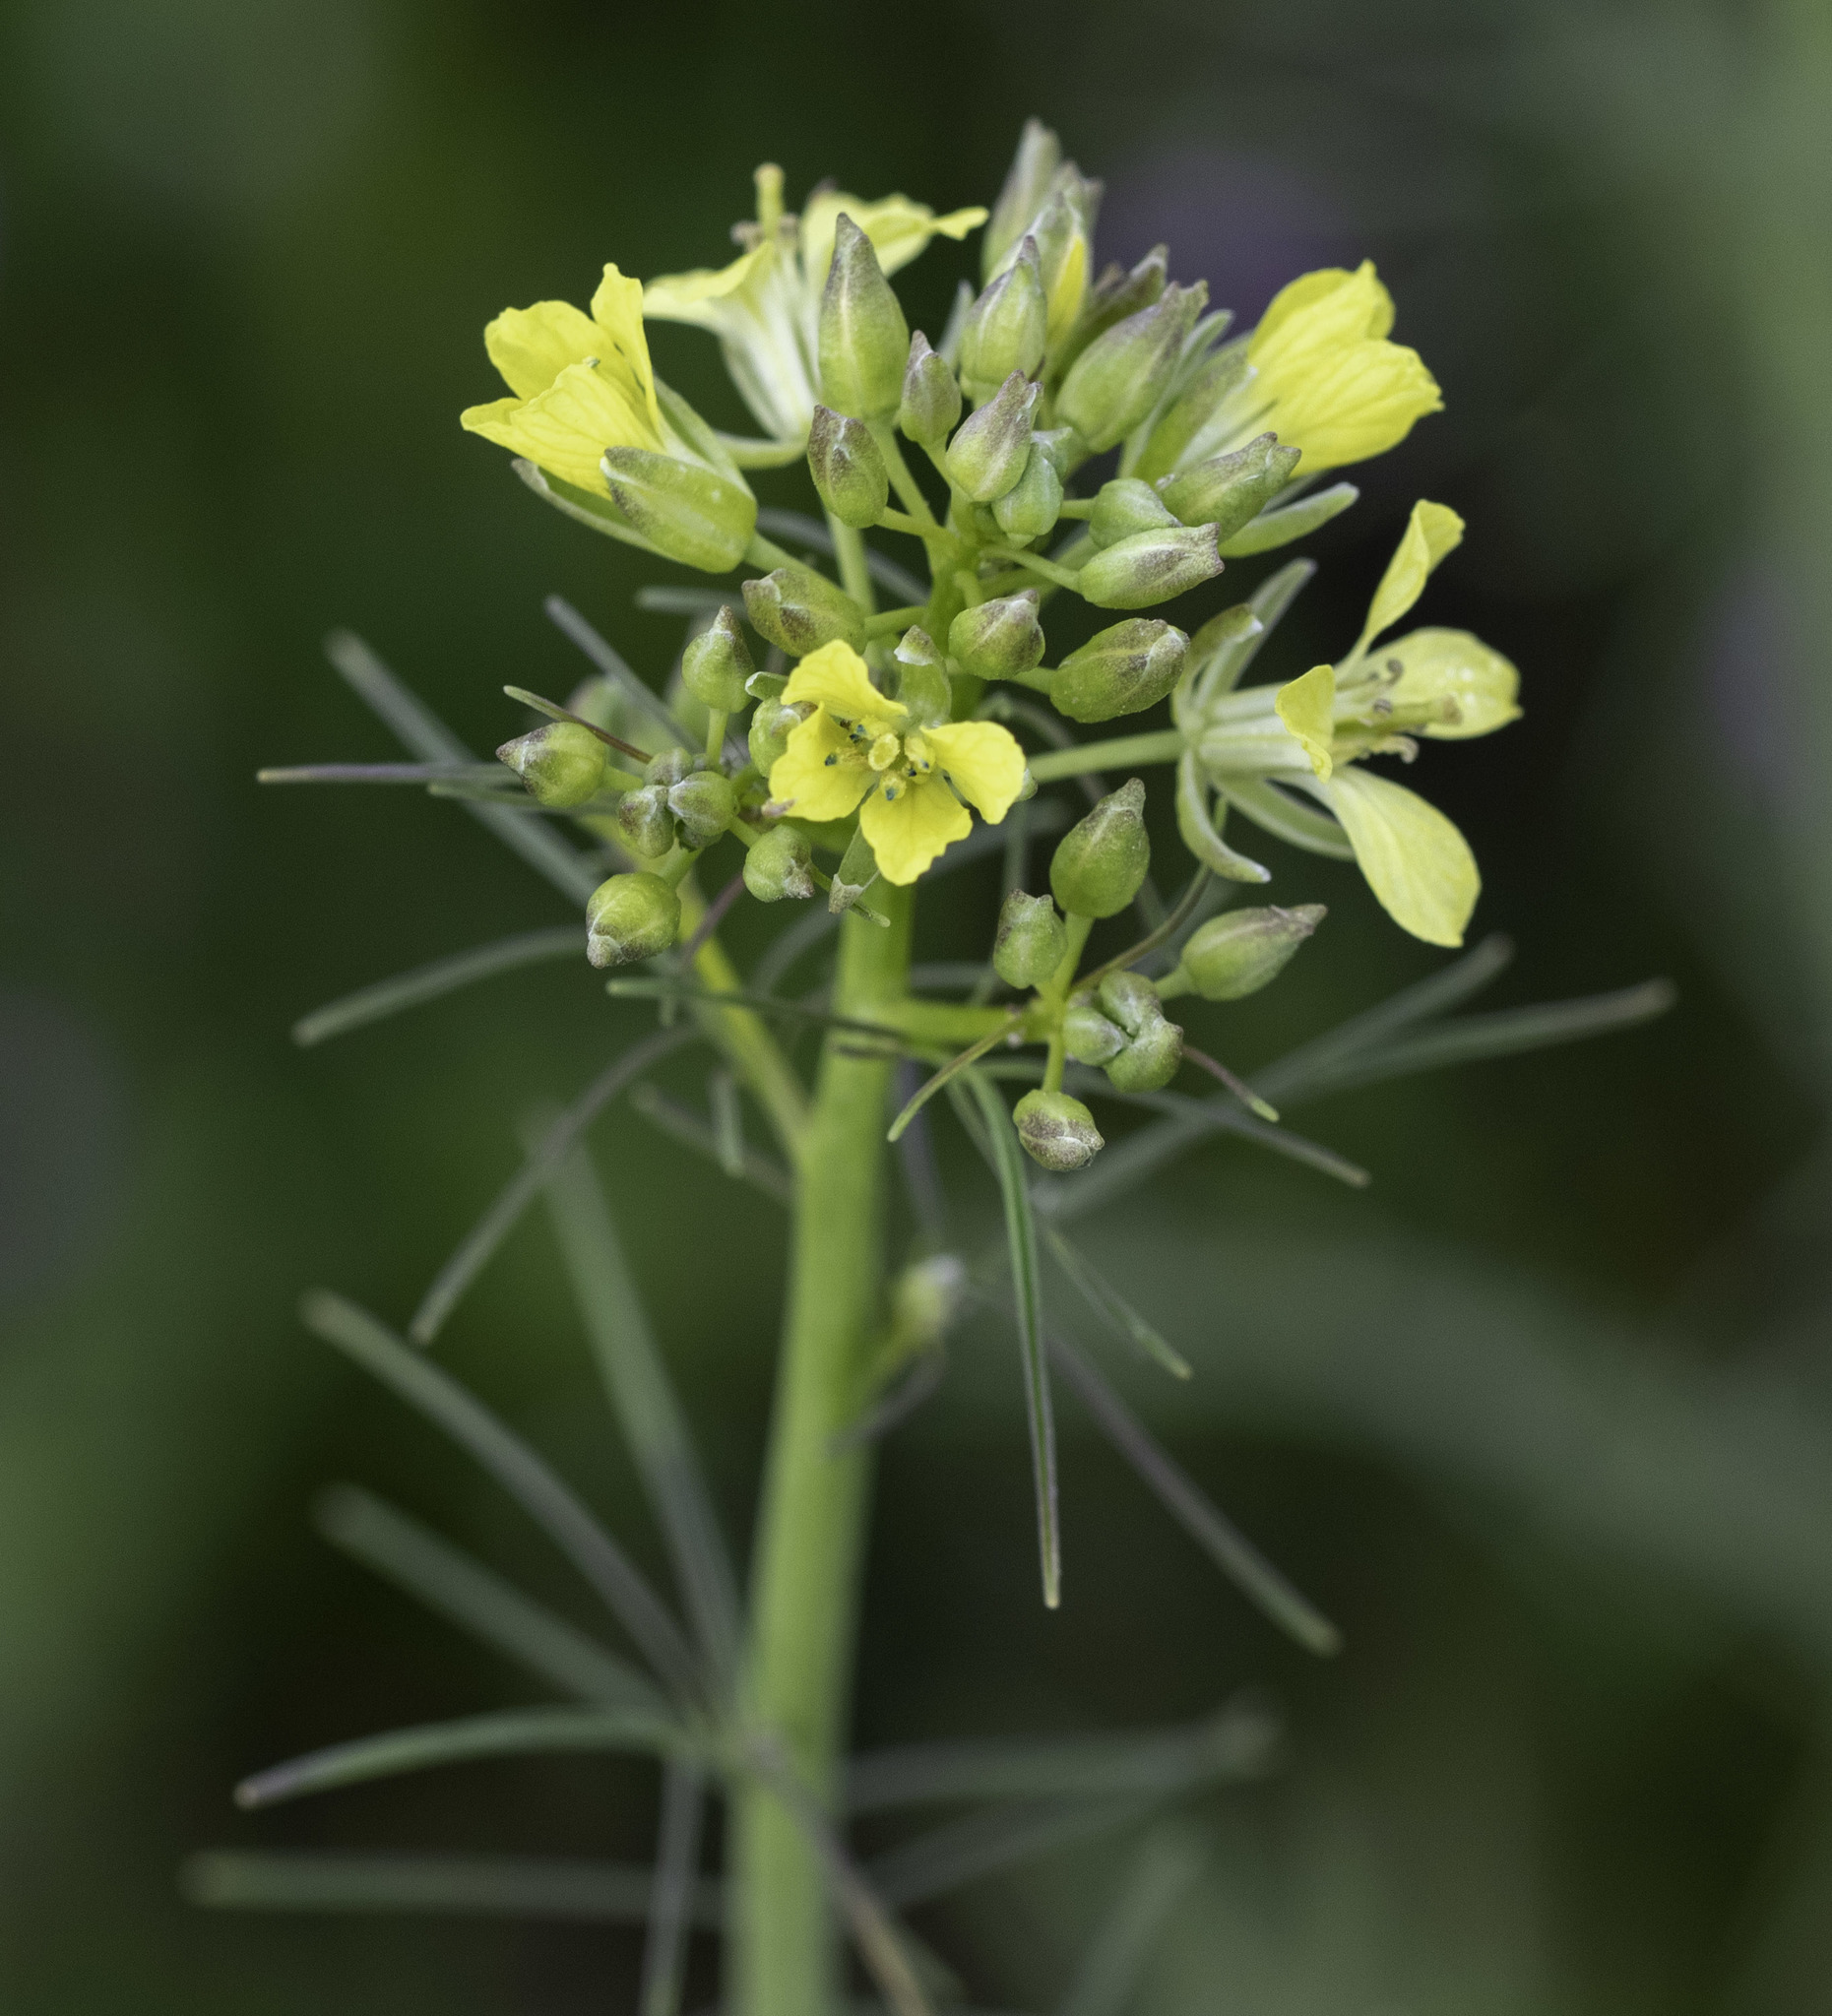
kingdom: Plantae
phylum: Tracheophyta
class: Magnoliopsida
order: Brassicales
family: Brassicaceae
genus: Sisymbrium
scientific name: Sisymbrium altissimum
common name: Tall rocket
